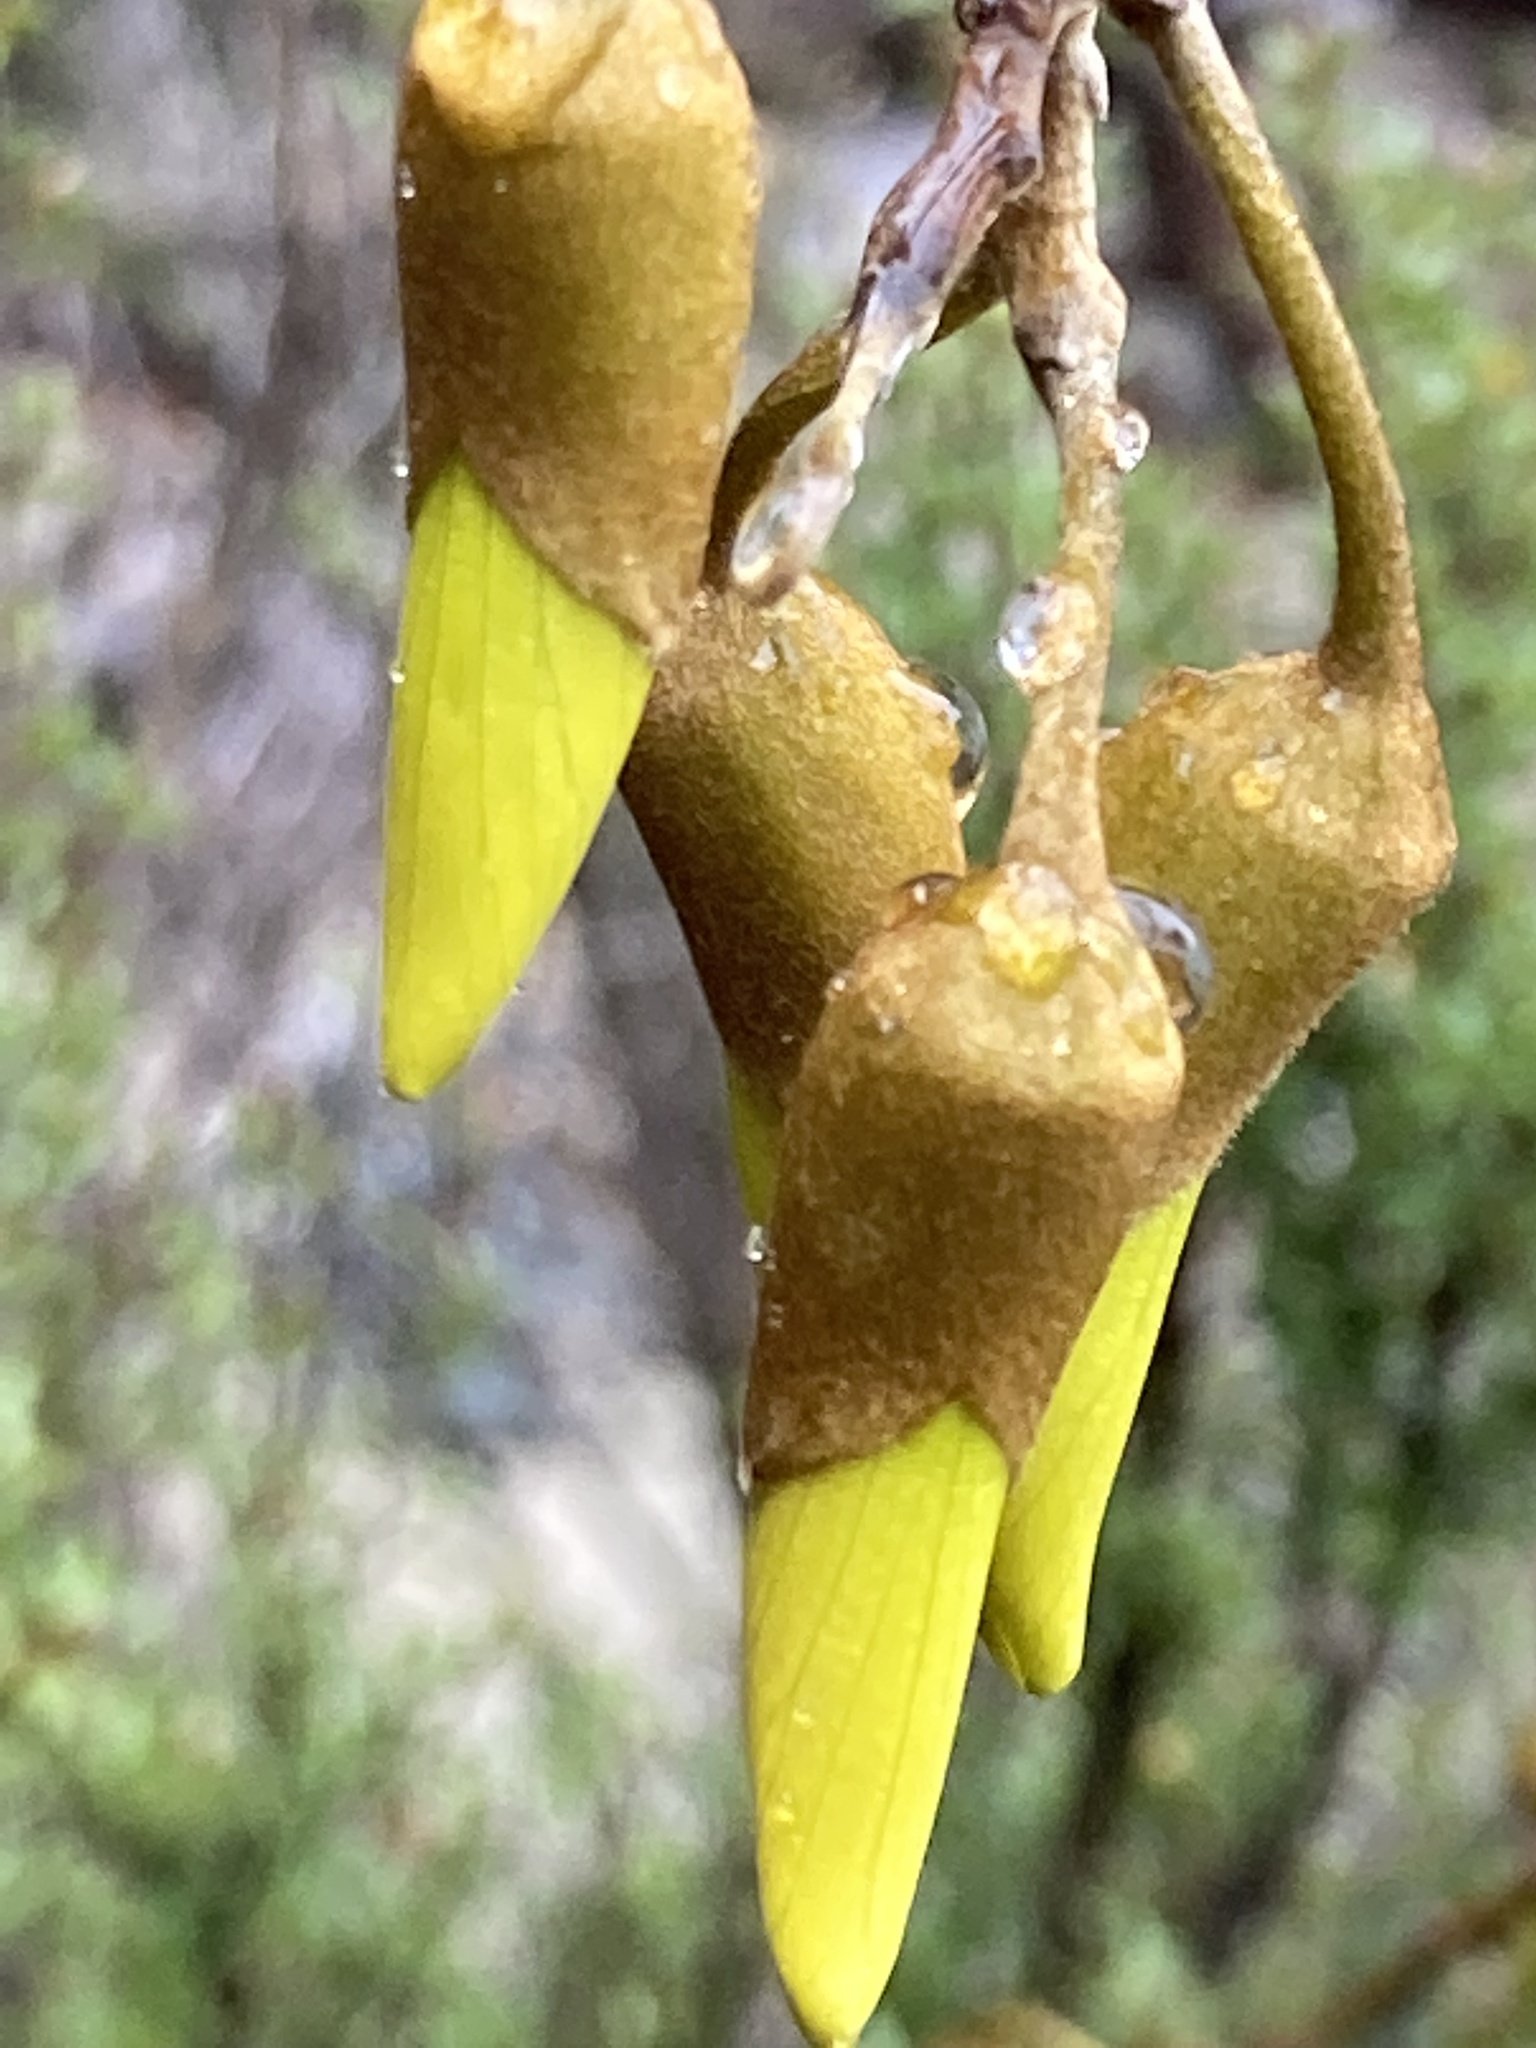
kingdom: Plantae
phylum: Tracheophyta
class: Magnoliopsida
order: Fabales
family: Fabaceae
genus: Sophora
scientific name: Sophora microphylla
